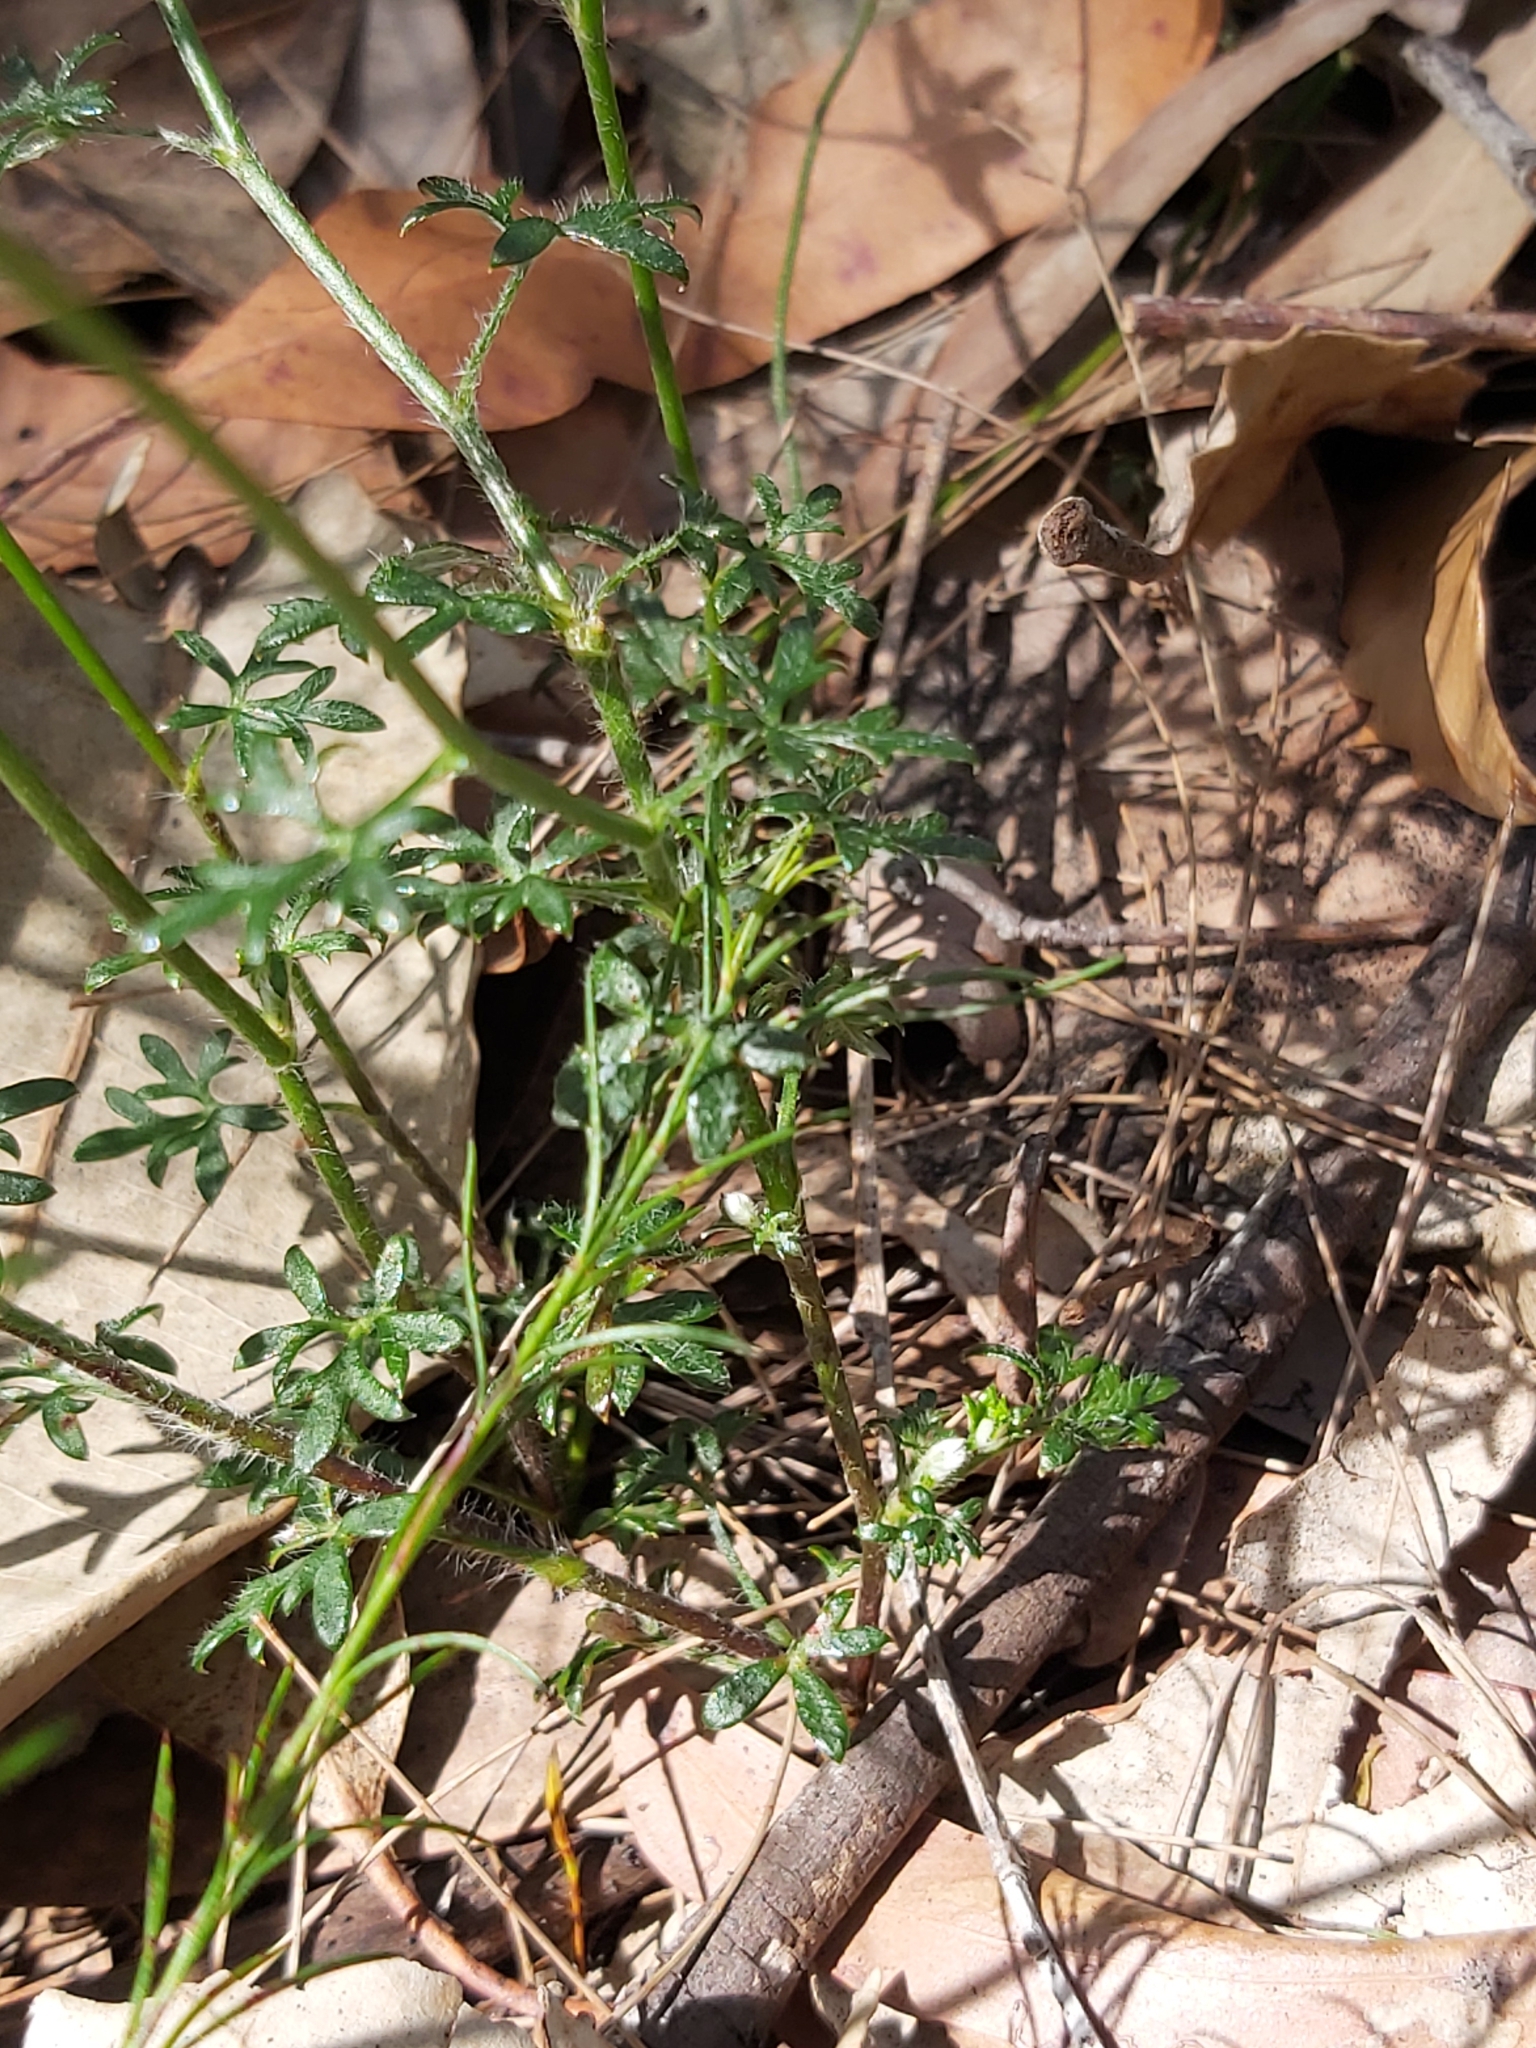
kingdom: Plantae
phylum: Tracheophyta
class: Magnoliopsida
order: Apiales
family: Apiaceae
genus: Actinotus
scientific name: Actinotus minor
